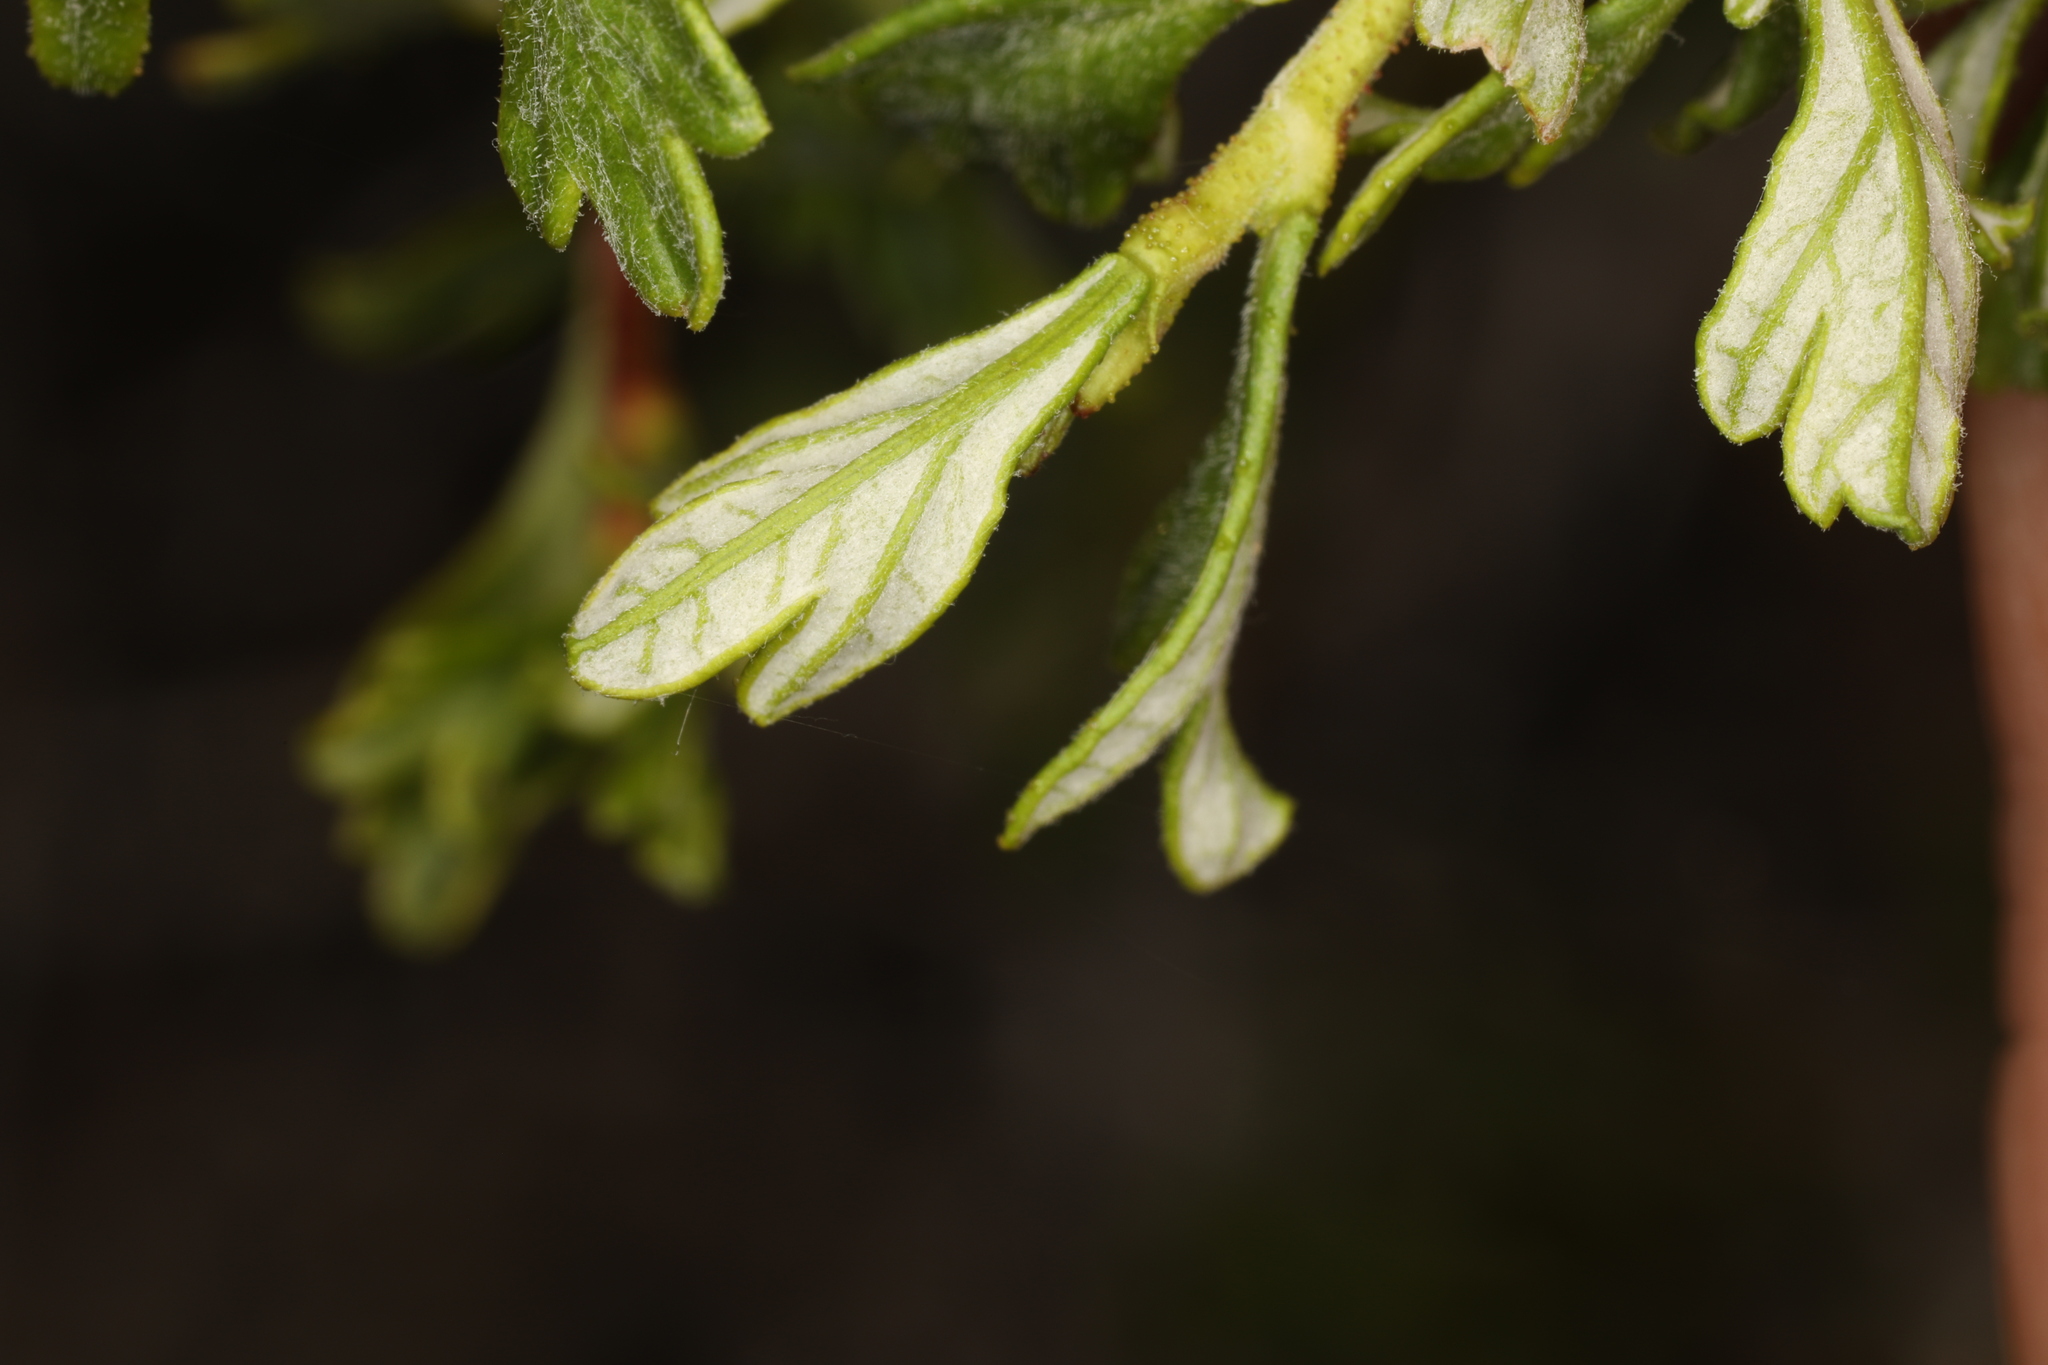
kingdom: Plantae
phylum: Tracheophyta
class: Magnoliopsida
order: Rosales
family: Rosaceae
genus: Purshia
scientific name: Purshia tridentata
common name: Antelope bitterbrush
